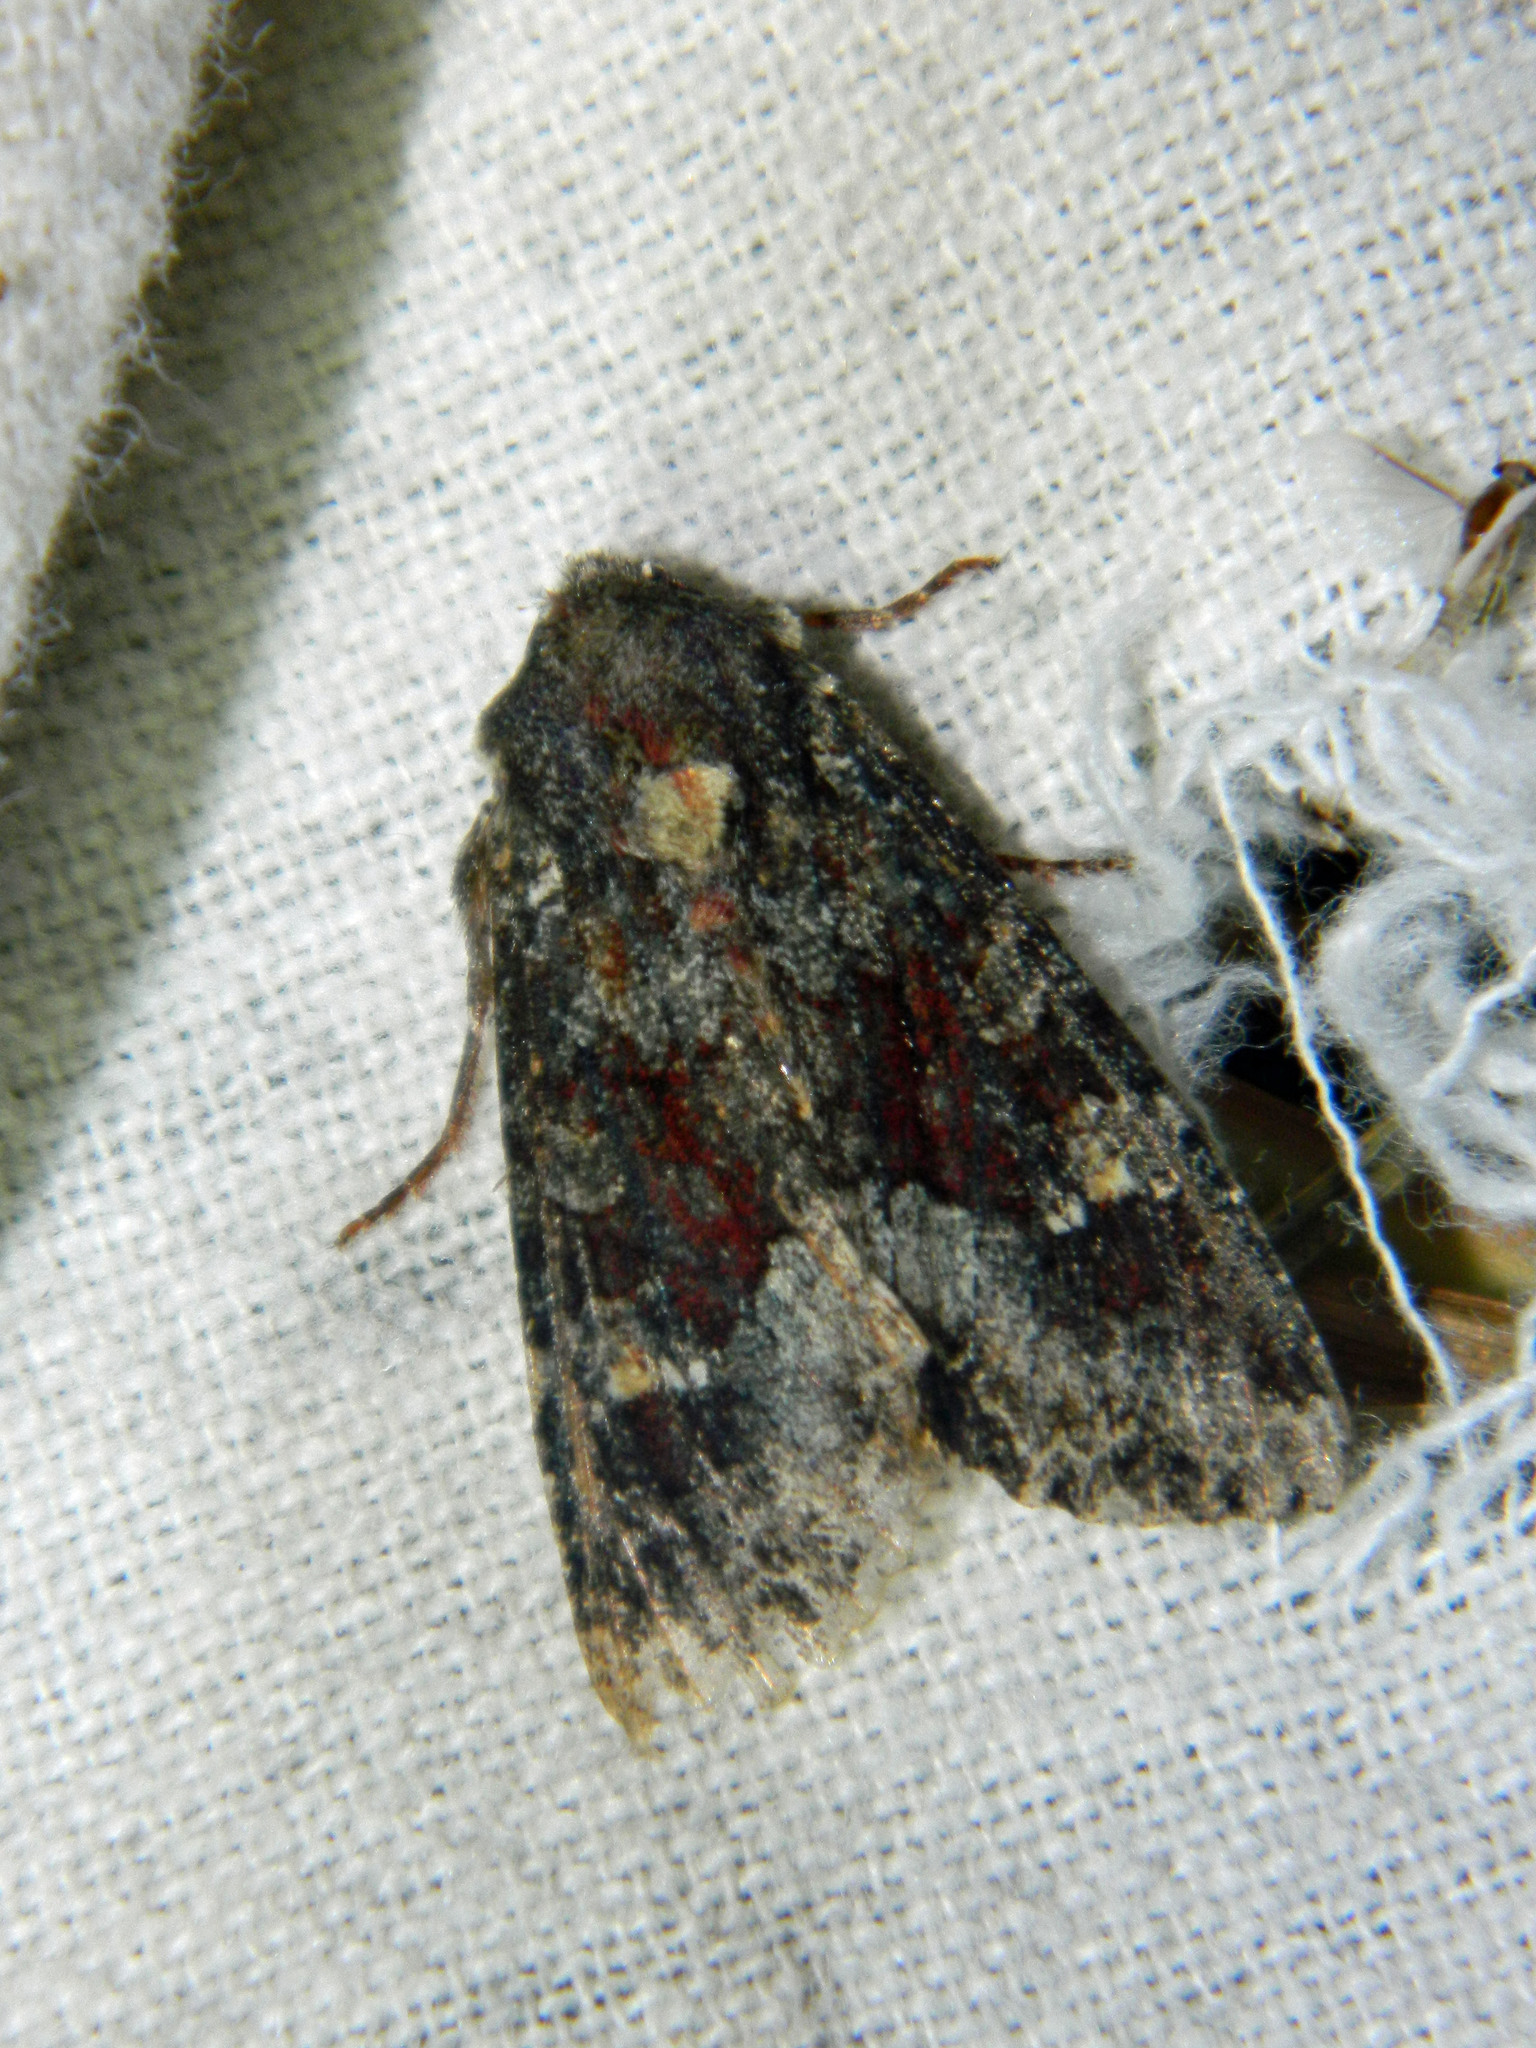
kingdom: Animalia
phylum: Arthropoda
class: Insecta
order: Lepidoptera
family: Noctuidae
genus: Apamea
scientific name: Apamea amputatrix
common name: Yellow-headed cutworm moth
